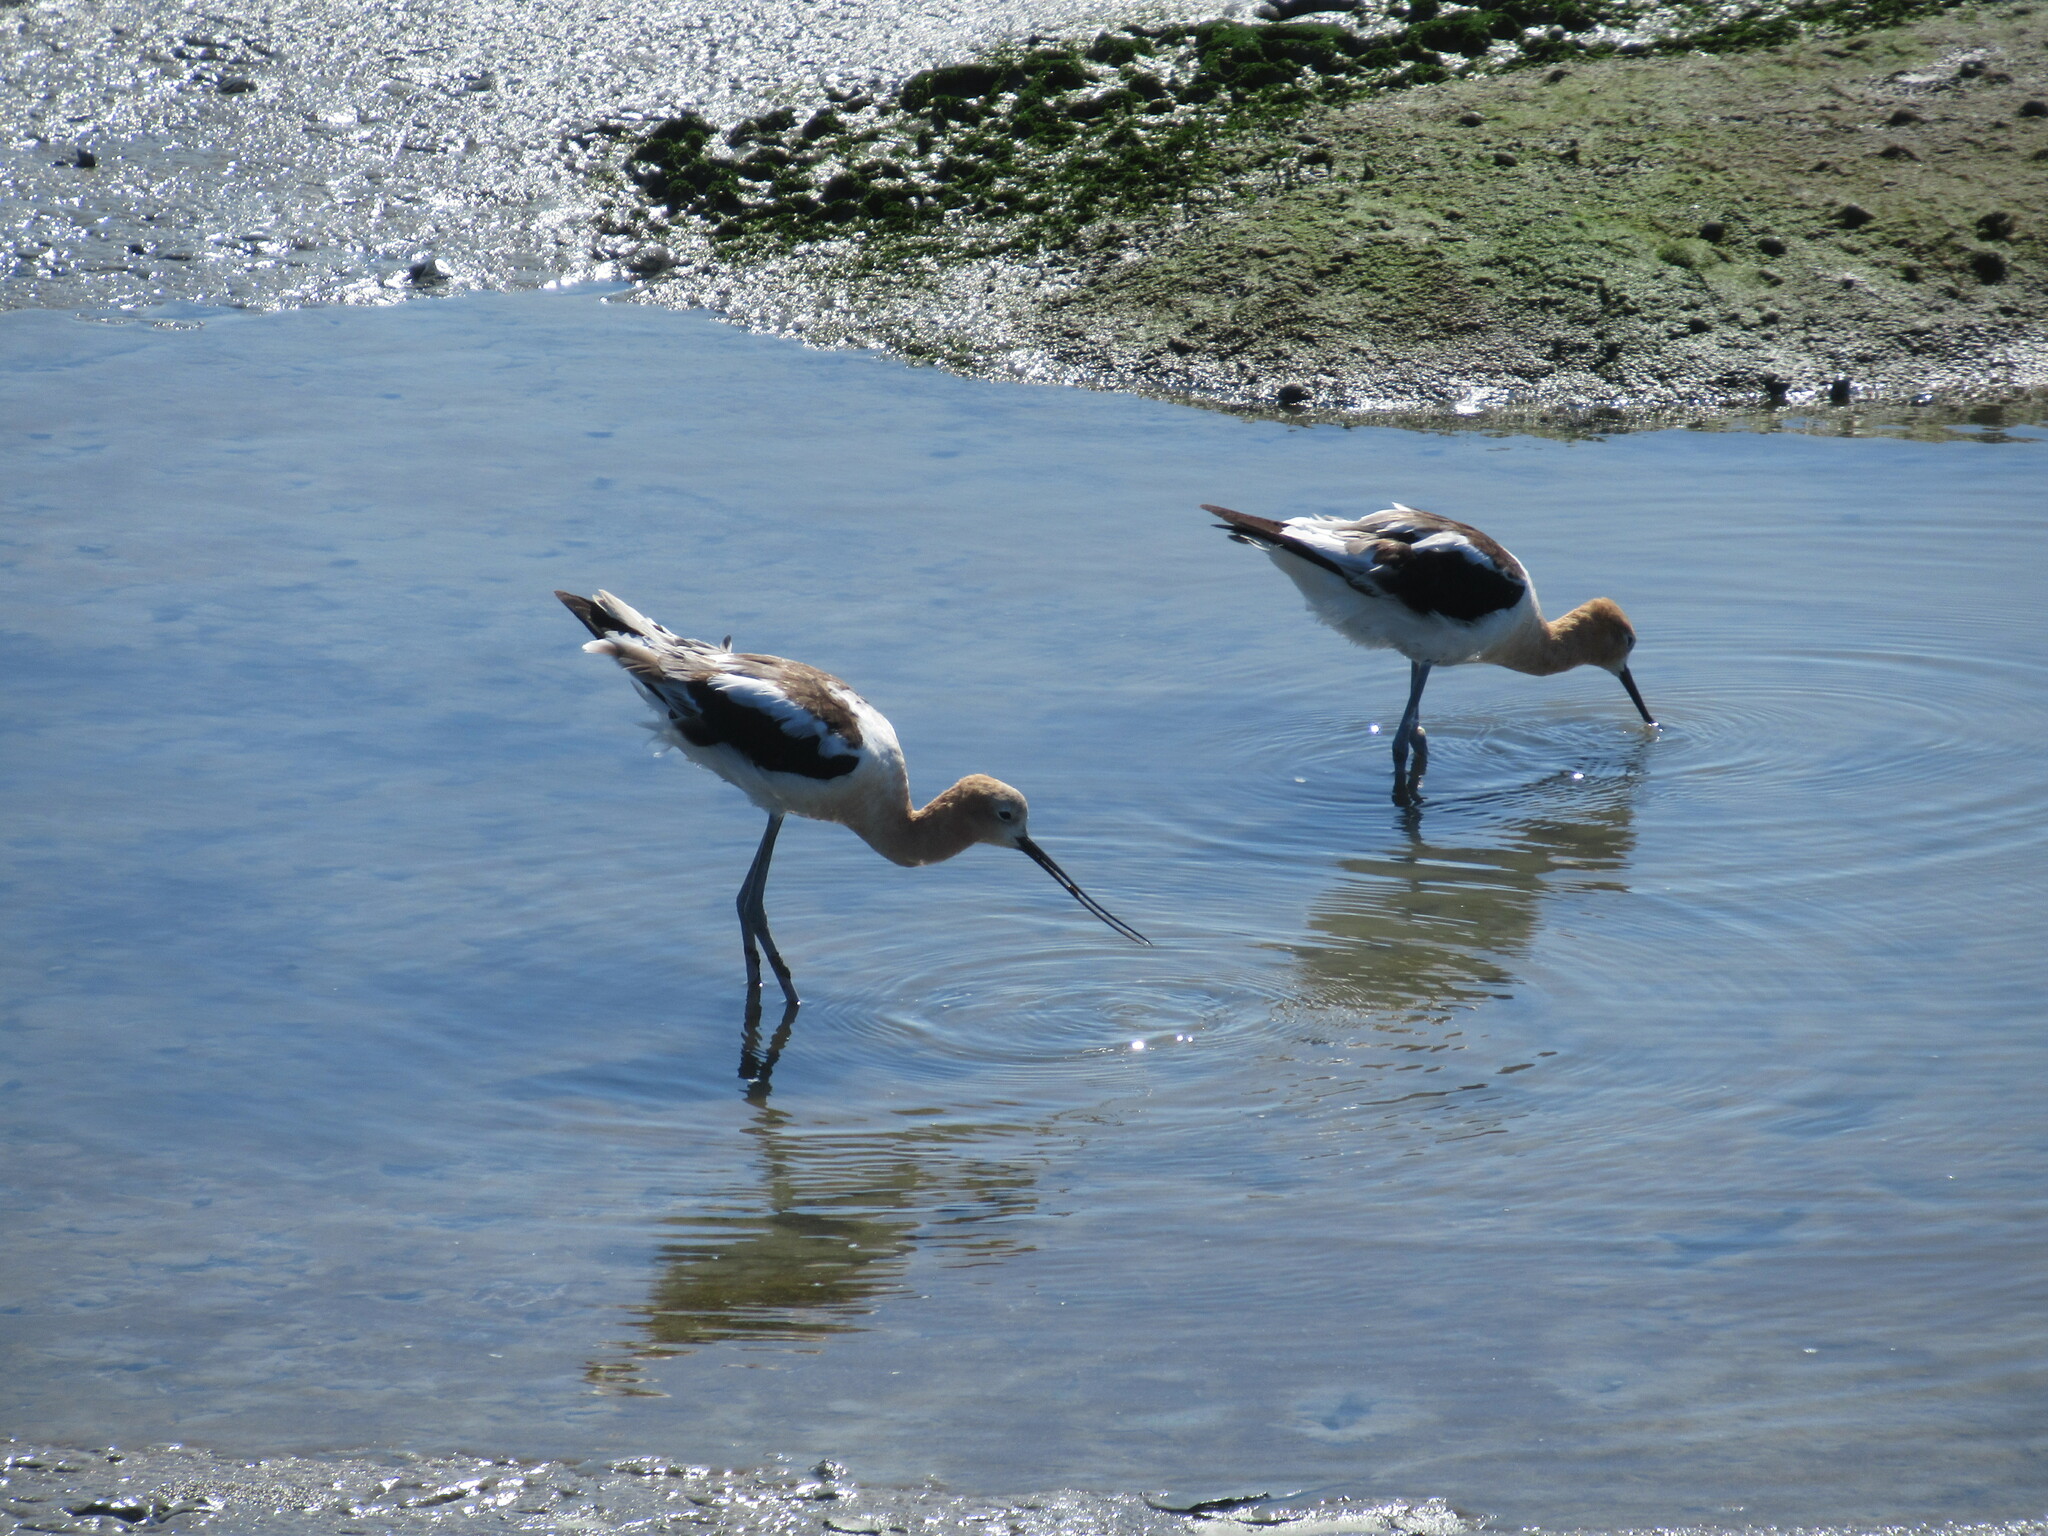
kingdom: Animalia
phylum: Chordata
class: Aves
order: Charadriiformes
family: Recurvirostridae
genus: Recurvirostra
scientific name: Recurvirostra americana
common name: American avocet
